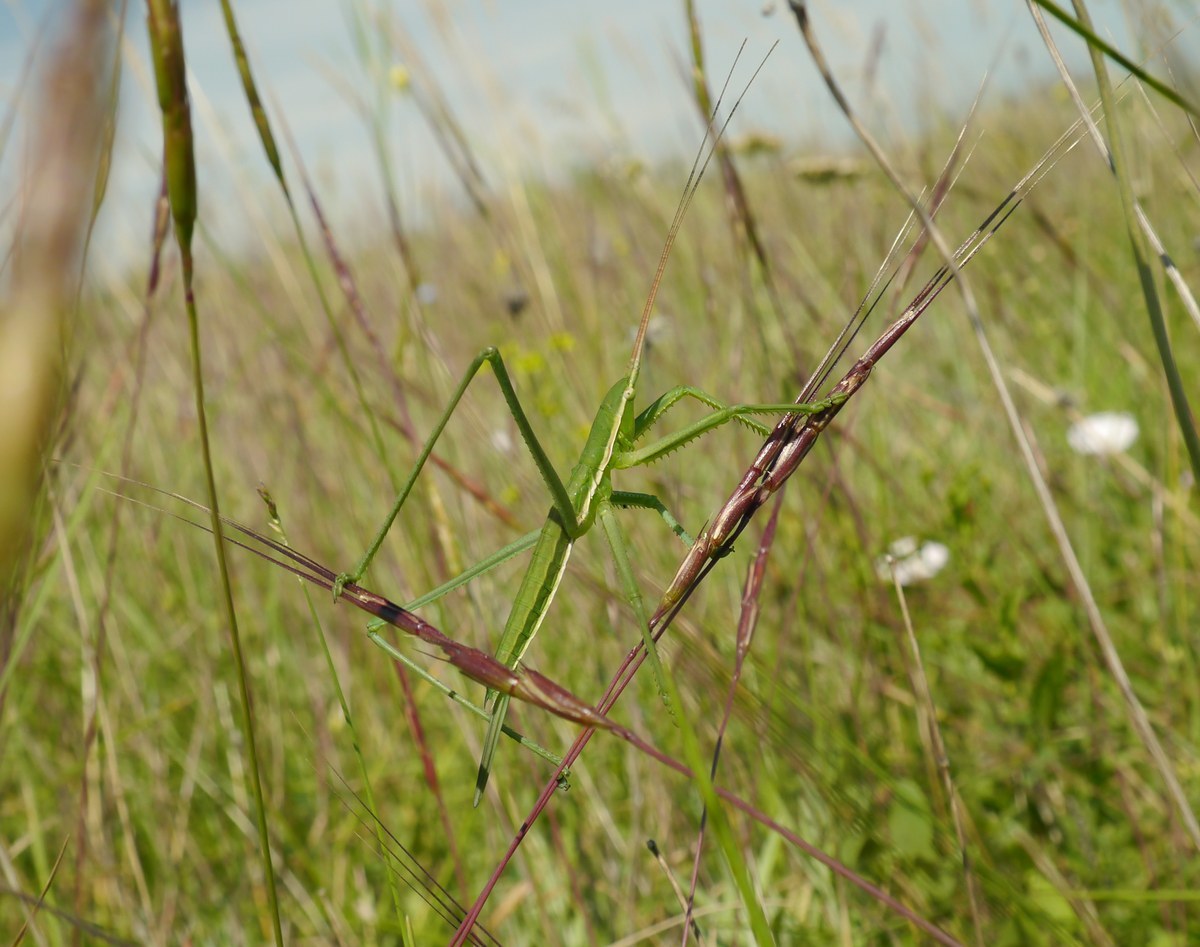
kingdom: Animalia
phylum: Arthropoda
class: Insecta
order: Orthoptera
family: Tettigoniidae
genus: Saga
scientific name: Saga pedo
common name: Common predatory bush-cricket
